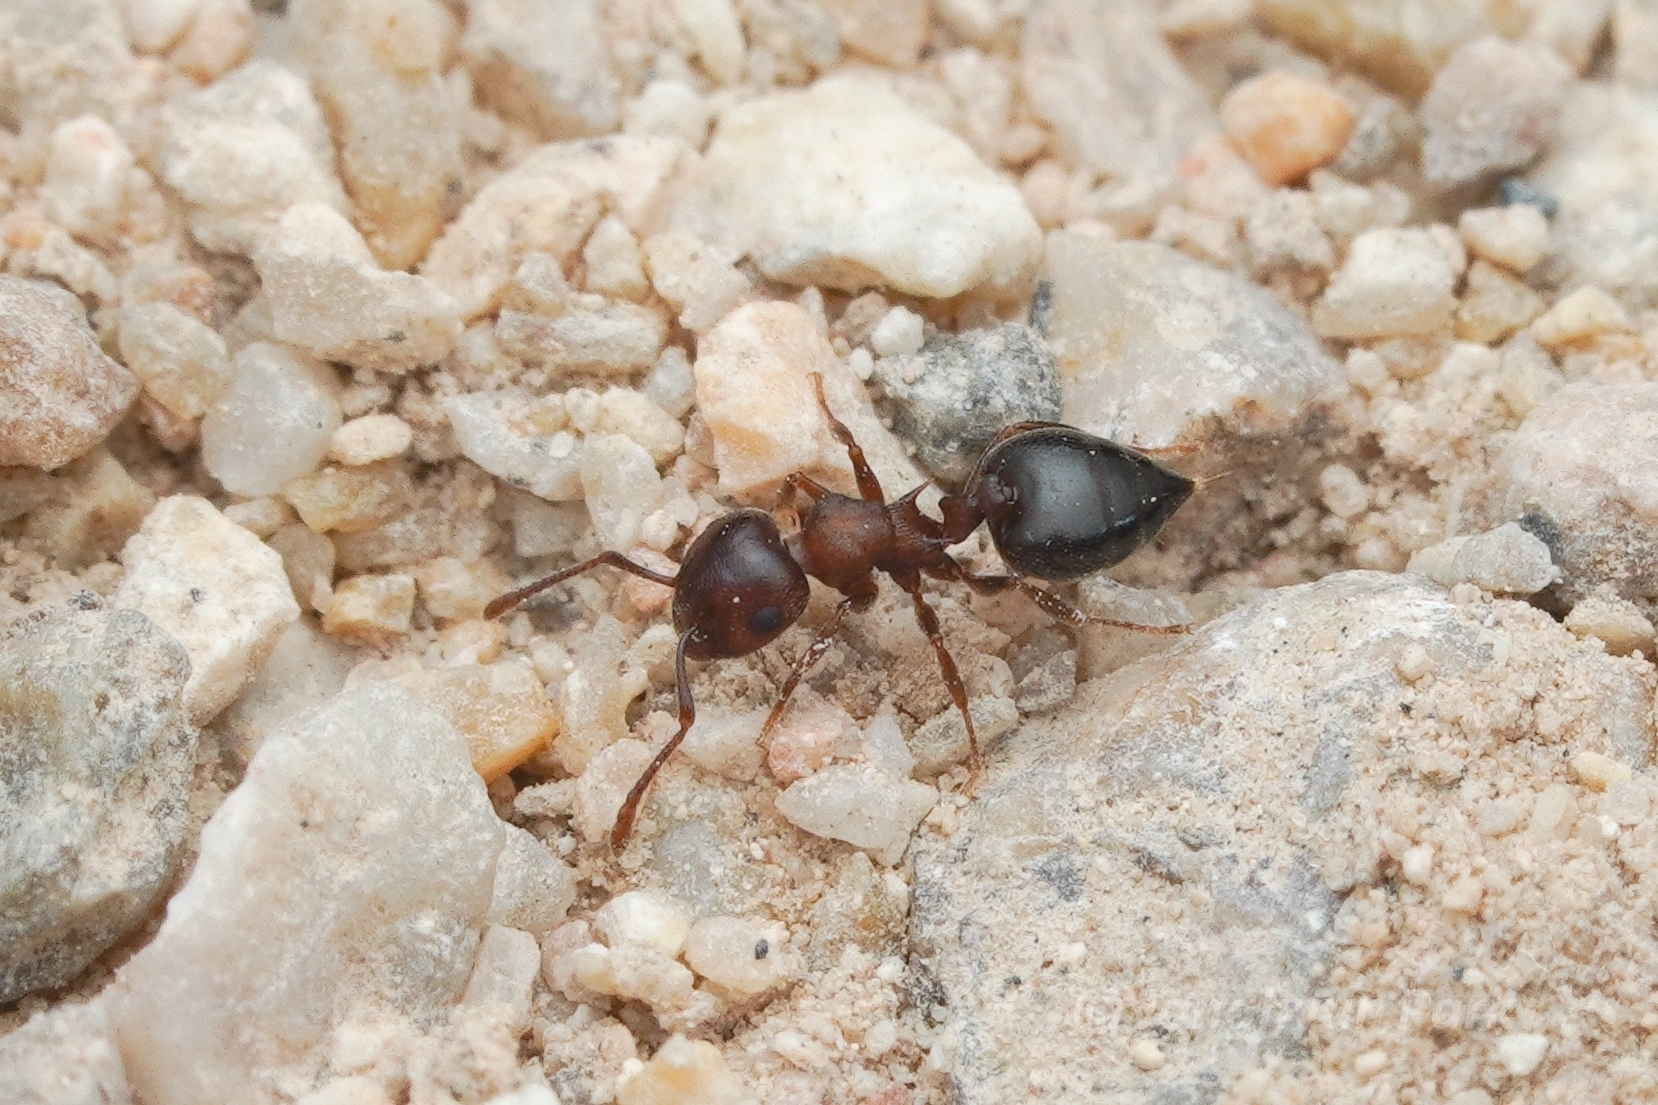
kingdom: Animalia
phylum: Arthropoda
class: Insecta
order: Hymenoptera
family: Formicidae
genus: Crematogaster
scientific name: Crematogaster depilis
